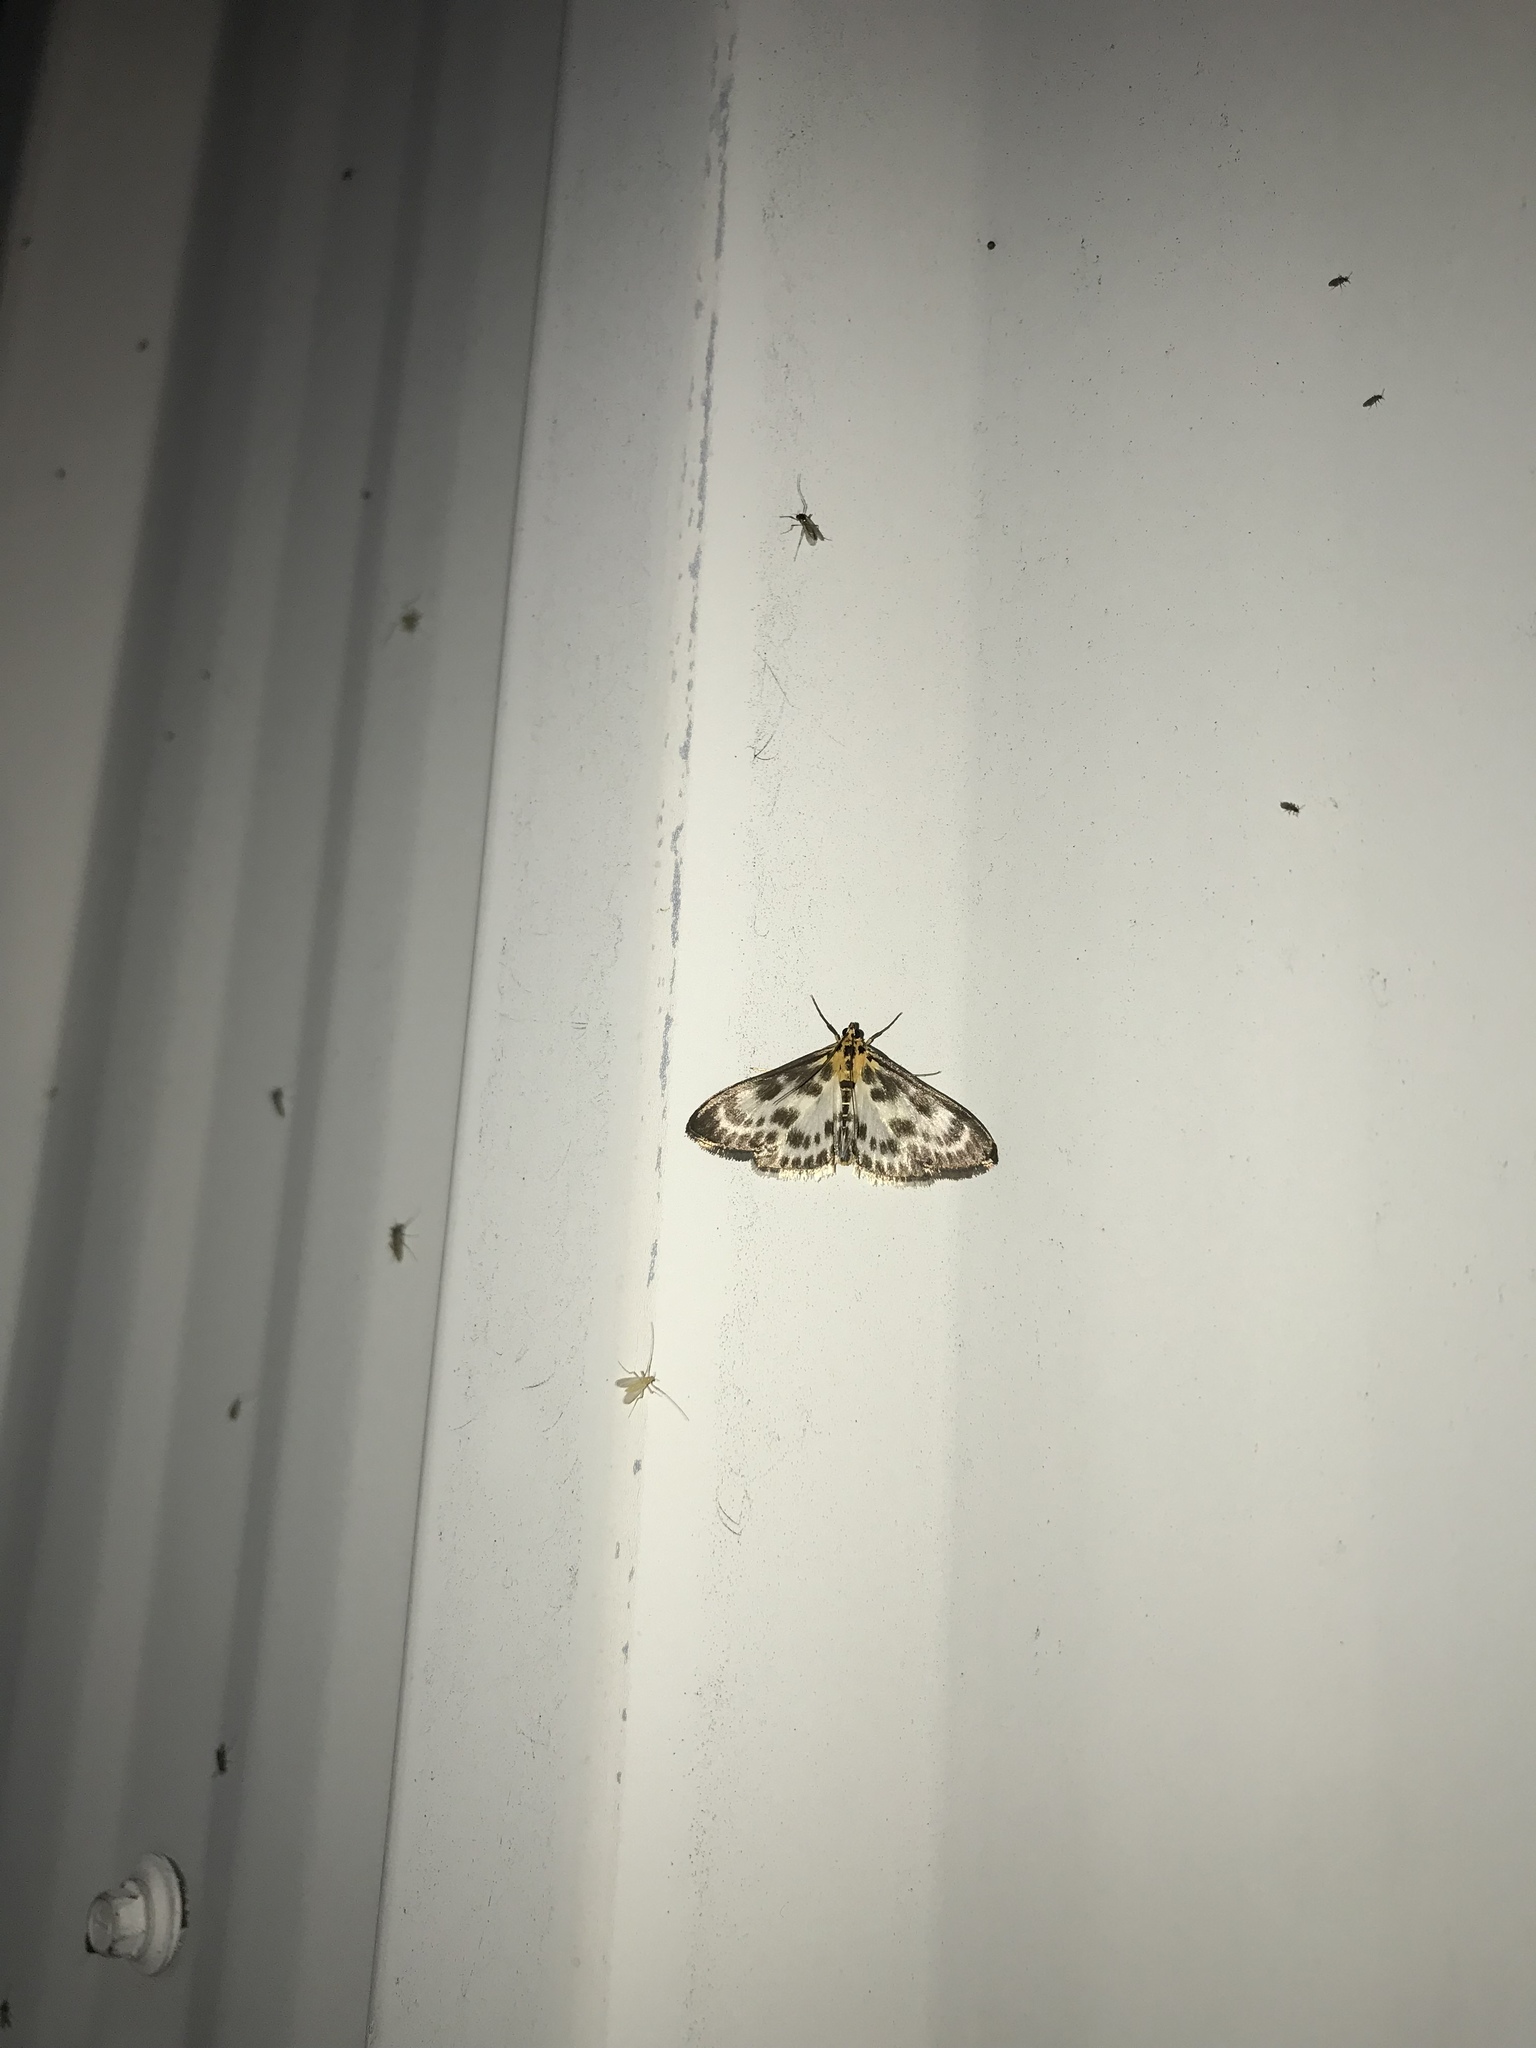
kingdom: Animalia
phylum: Arthropoda
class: Insecta
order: Lepidoptera
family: Crambidae
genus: Anania
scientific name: Anania hortulata
